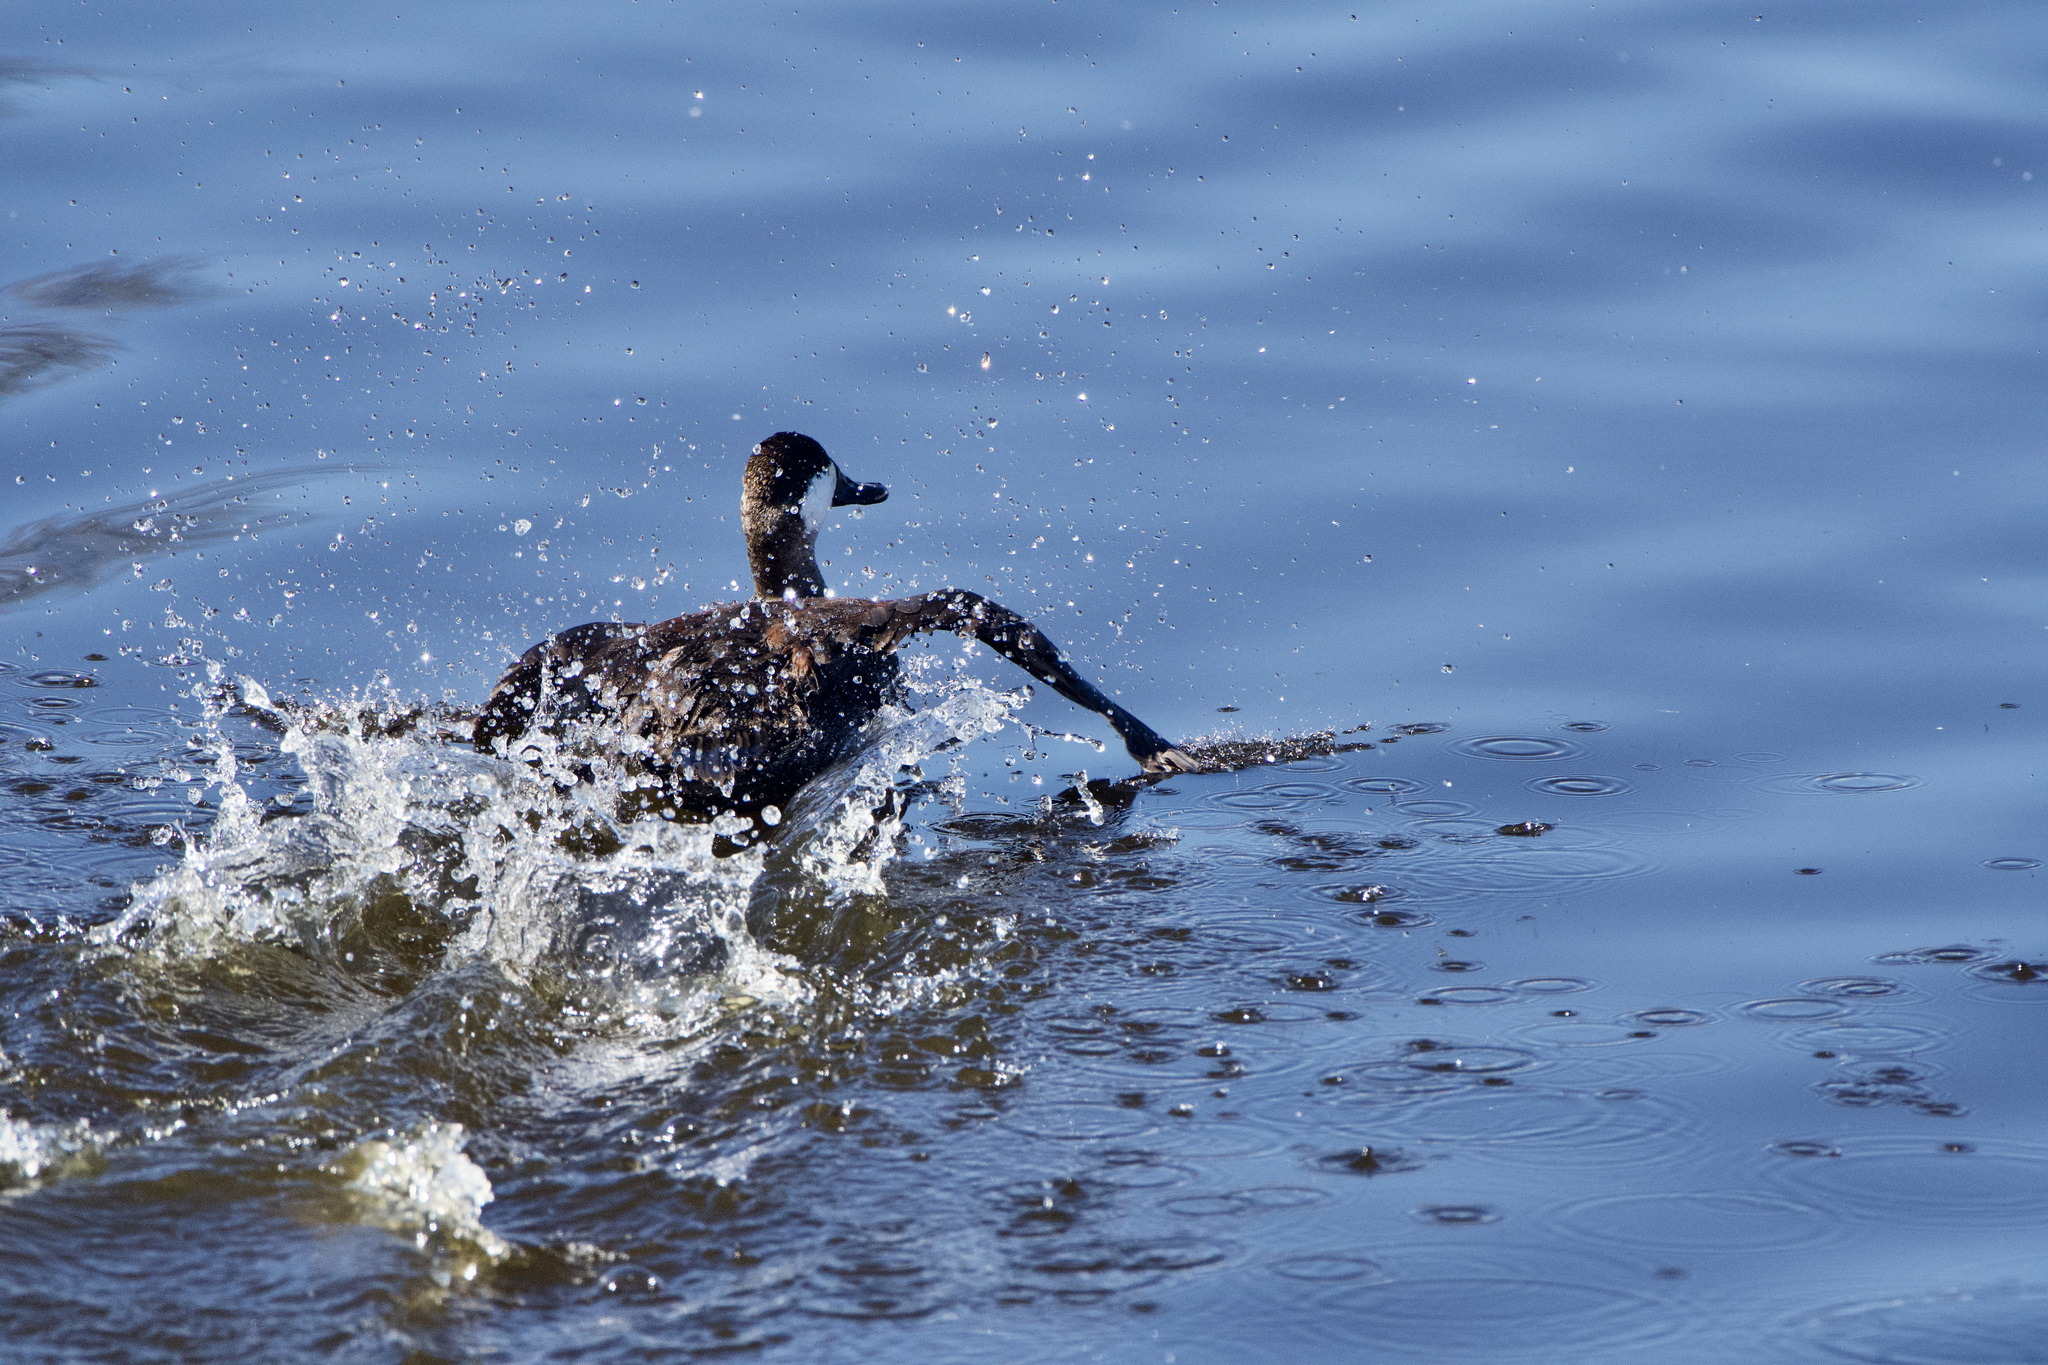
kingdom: Animalia
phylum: Chordata
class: Aves
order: Anseriformes
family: Anatidae
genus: Oxyura
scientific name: Oxyura jamaicensis
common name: Ruddy duck
